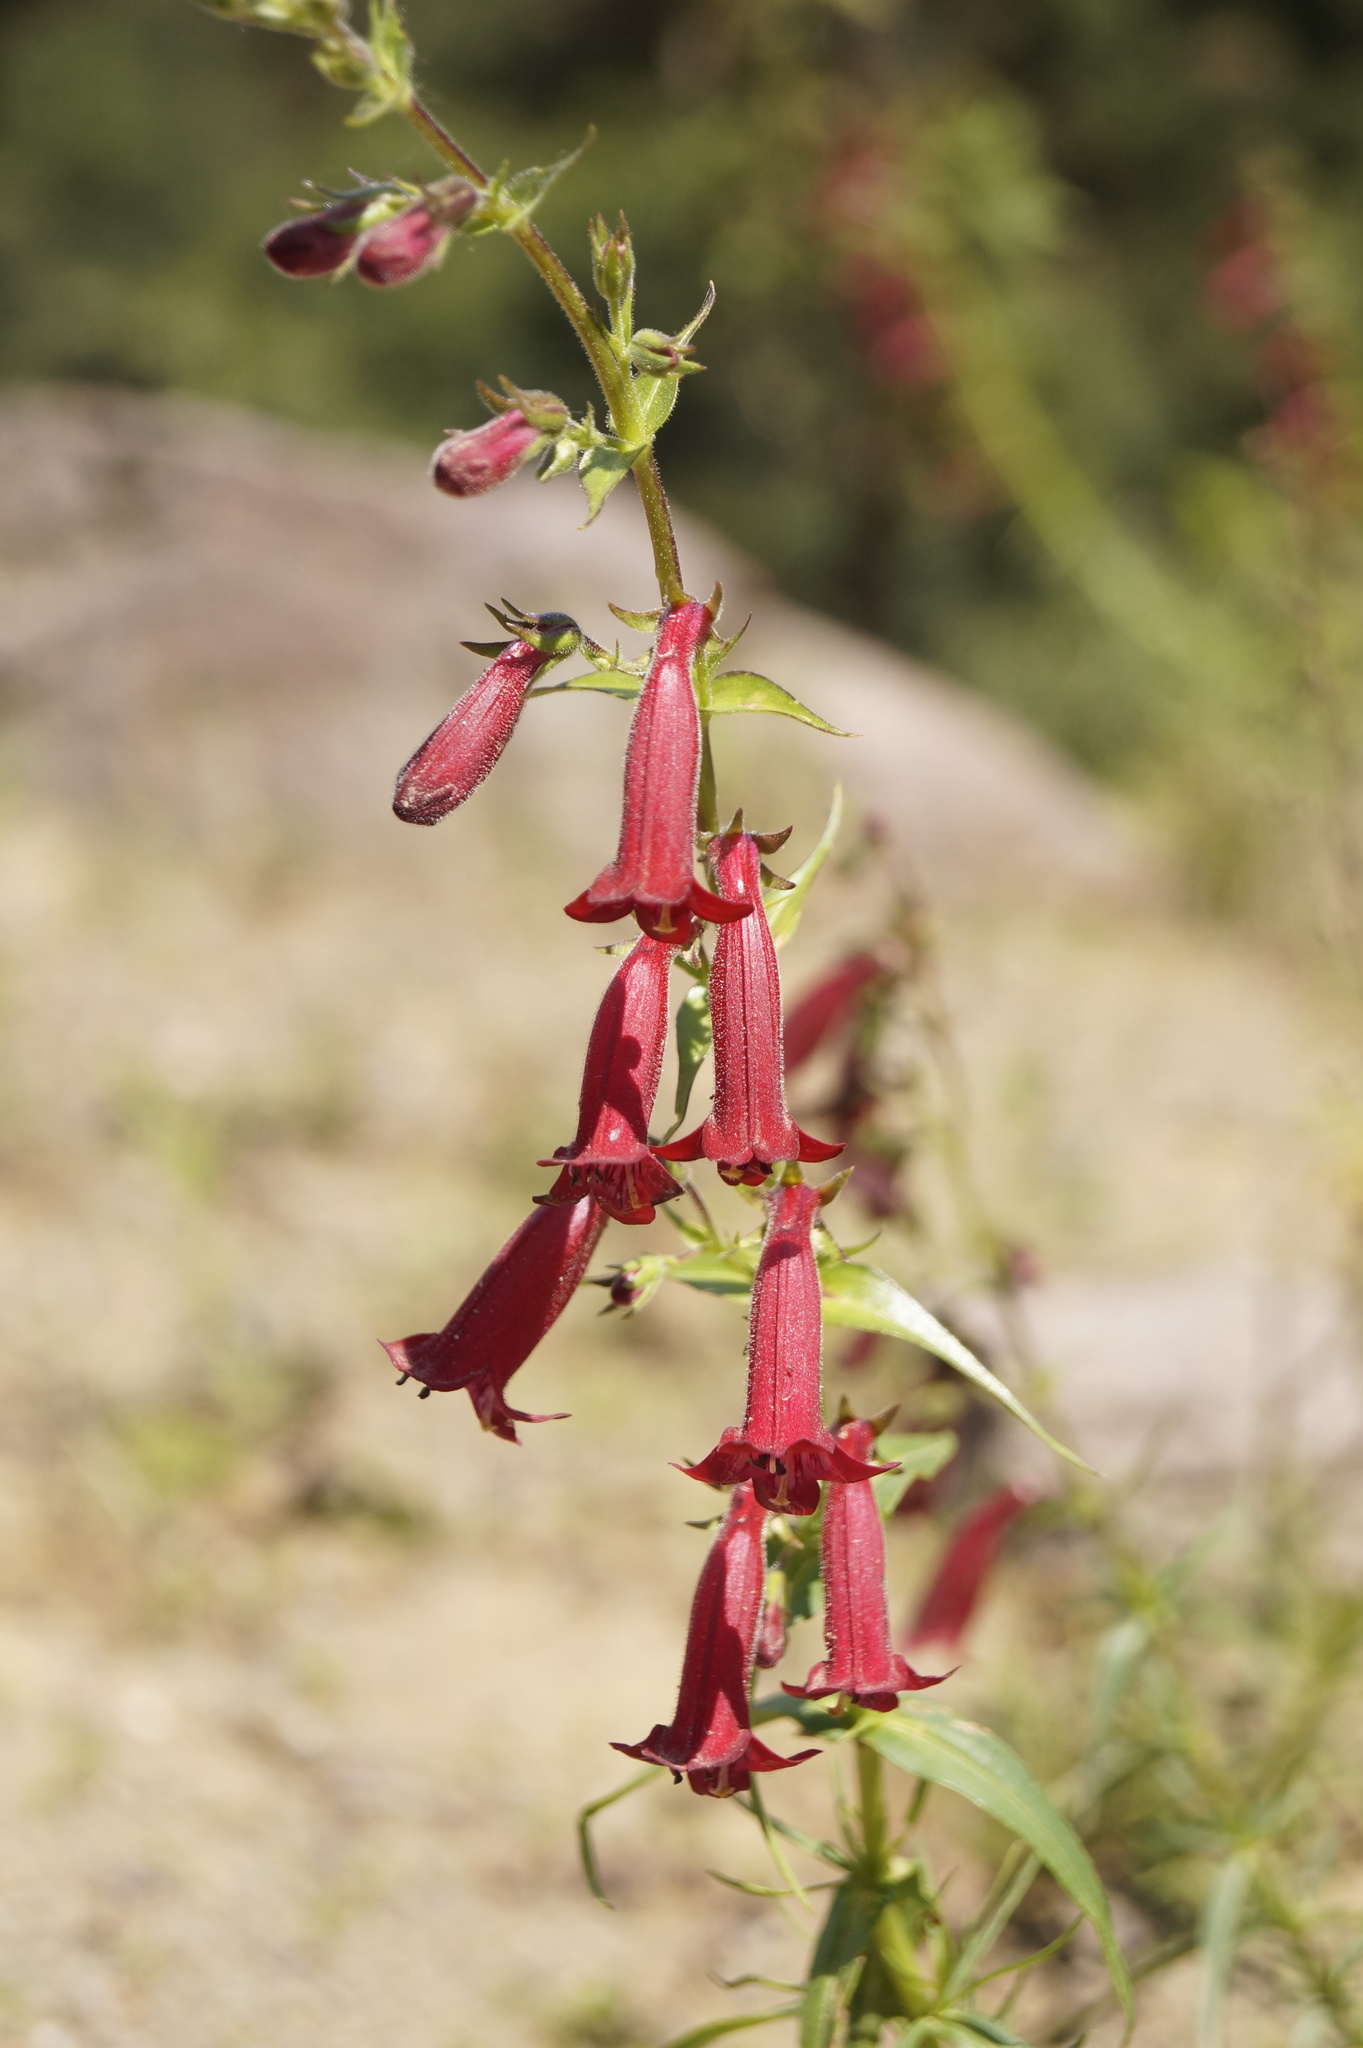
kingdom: Plantae
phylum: Tracheophyta
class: Magnoliopsida
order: Lamiales
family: Plantaginaceae
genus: Penstemon
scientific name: Penstemon roseus
